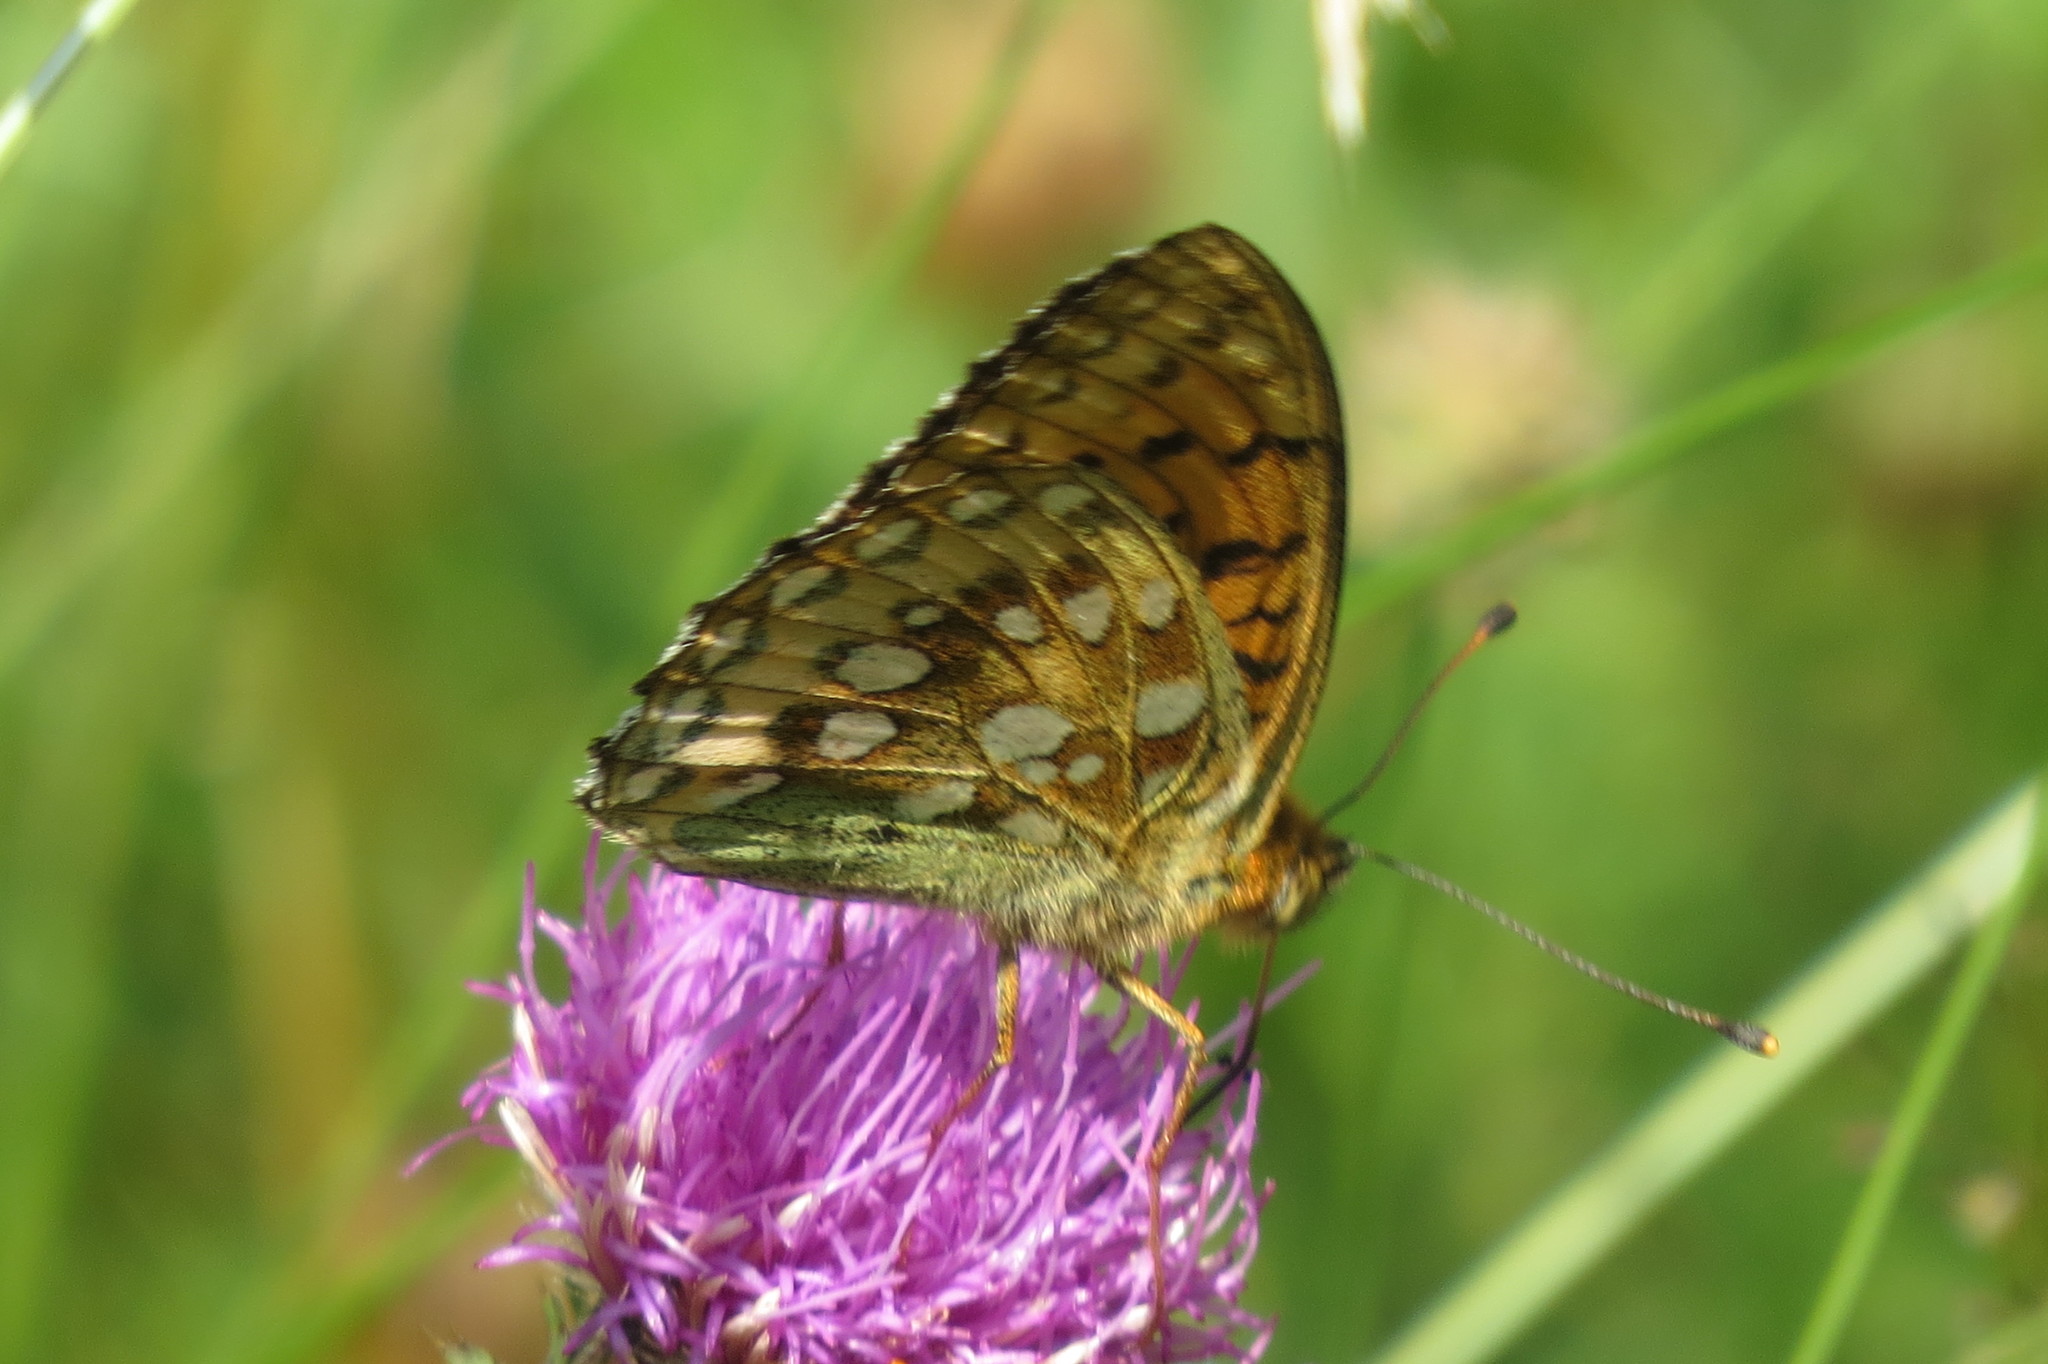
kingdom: Animalia
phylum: Arthropoda
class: Insecta
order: Lepidoptera
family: Nymphalidae
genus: Speyeria
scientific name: Speyeria aglaja
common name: Dark green fritillary
